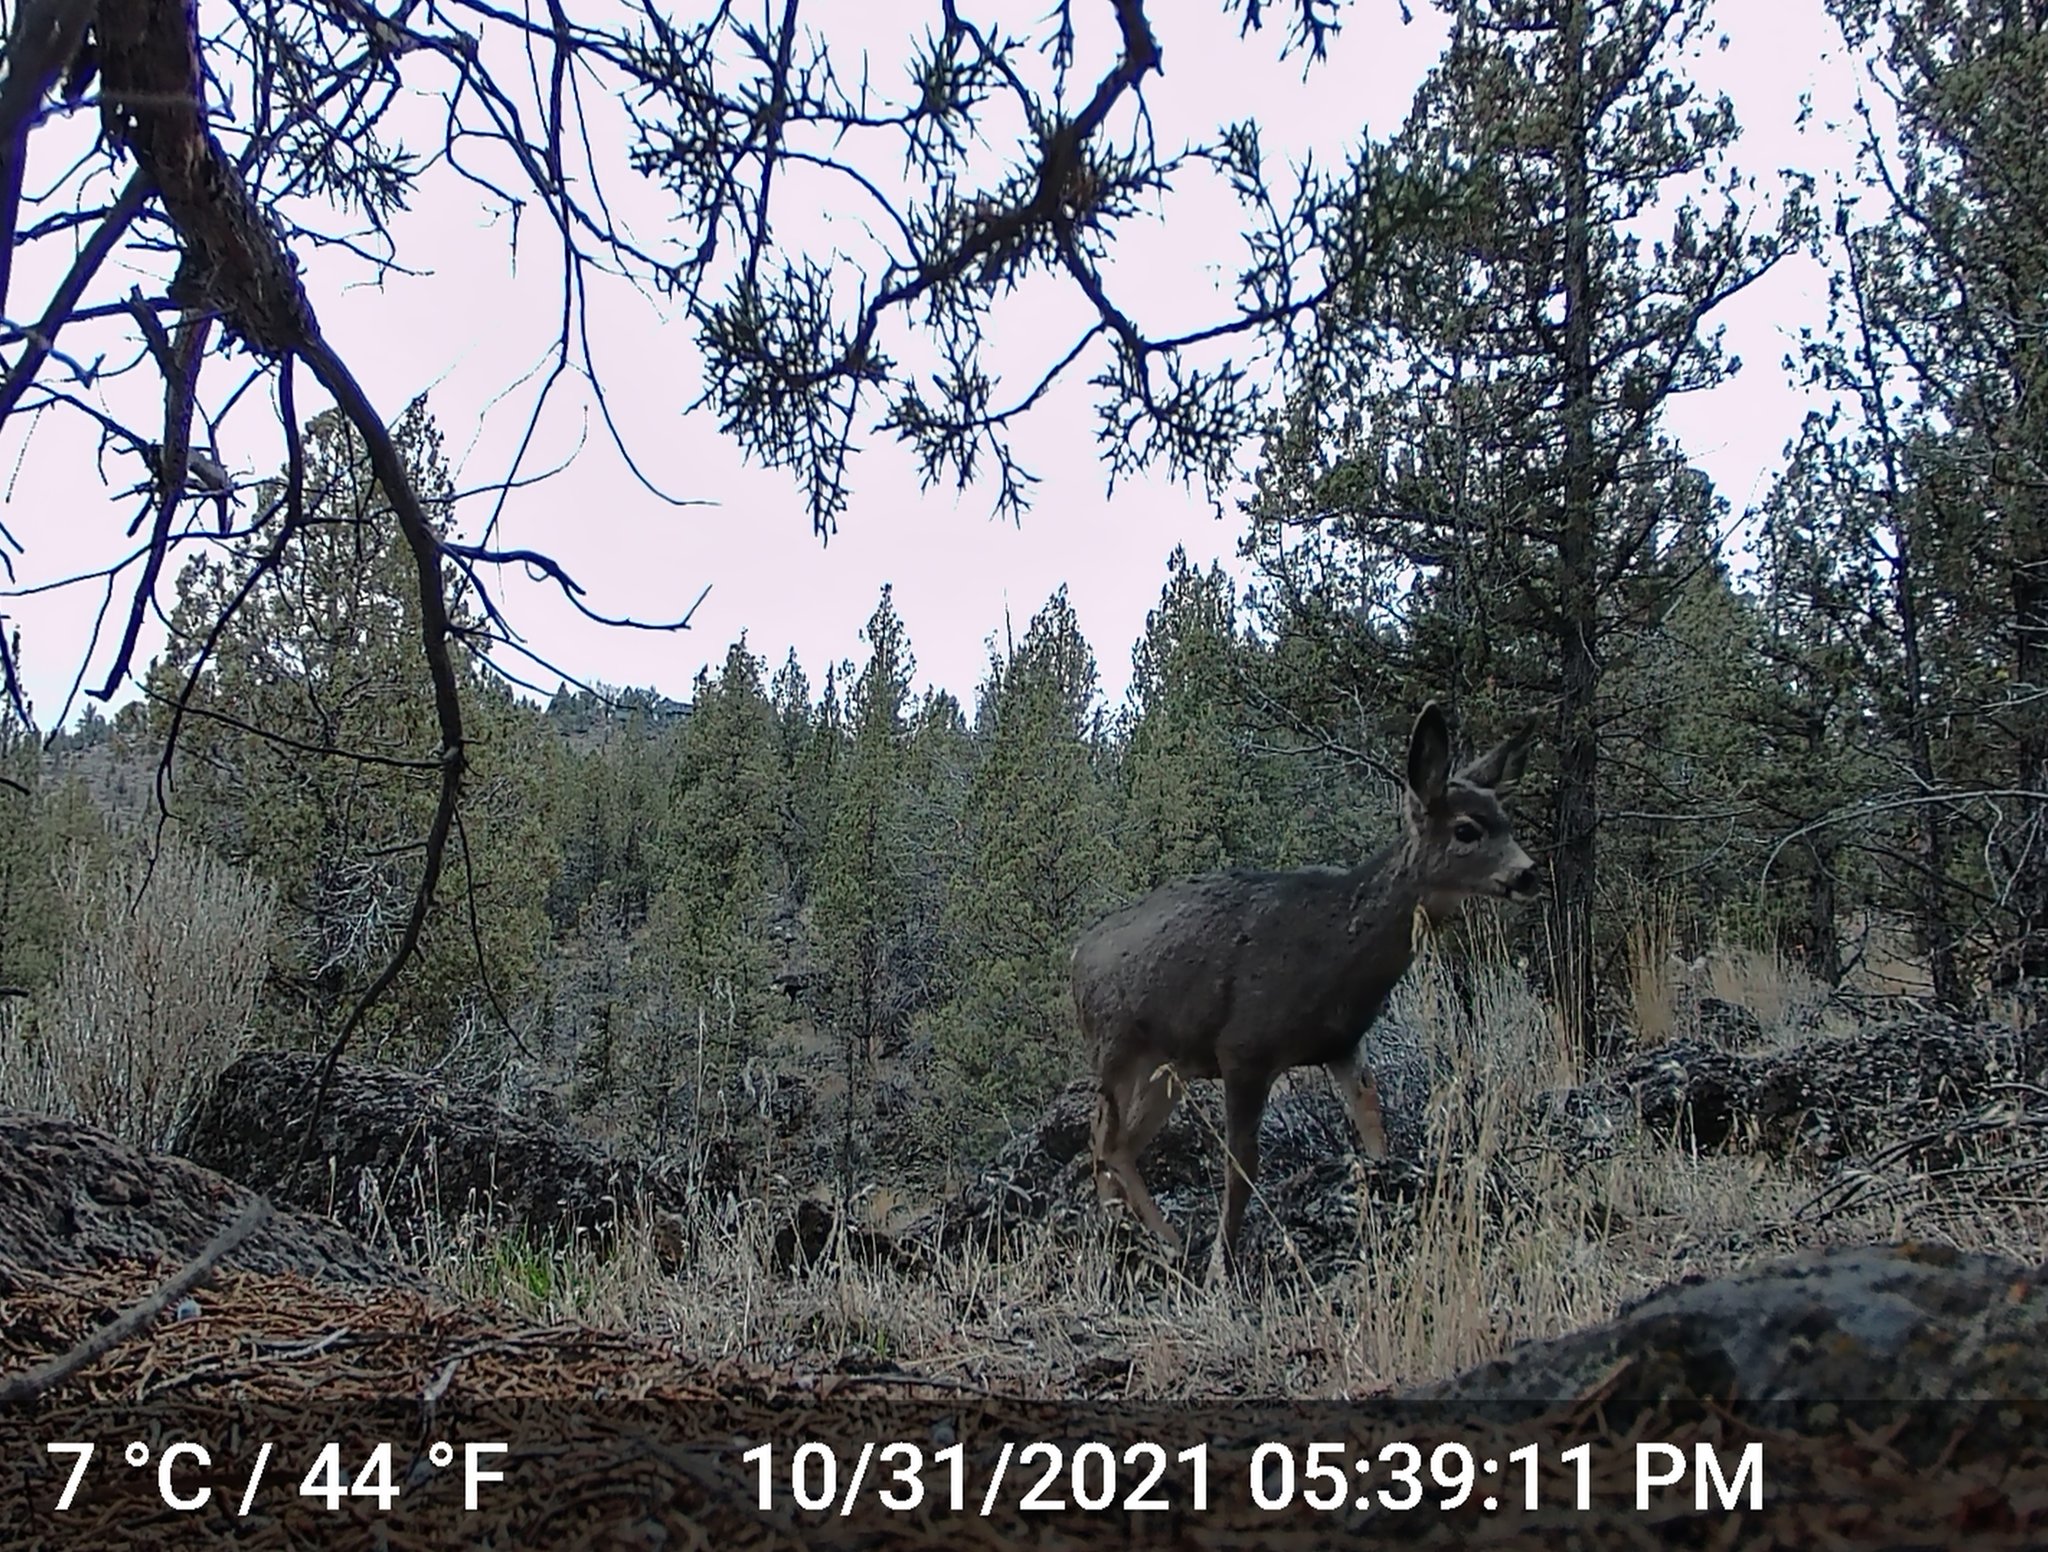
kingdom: Animalia
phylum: Chordata
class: Mammalia
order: Artiodactyla
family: Cervidae
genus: Odocoileus
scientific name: Odocoileus hemionus
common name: Mule deer
